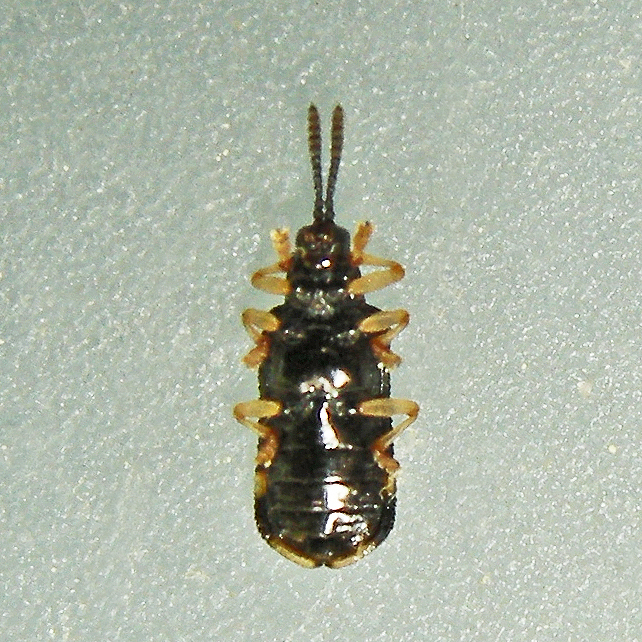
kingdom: Animalia
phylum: Arthropoda
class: Insecta
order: Coleoptera
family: Chrysomelidae
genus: Sumitrosis
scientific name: Sumitrosis inaequalis
